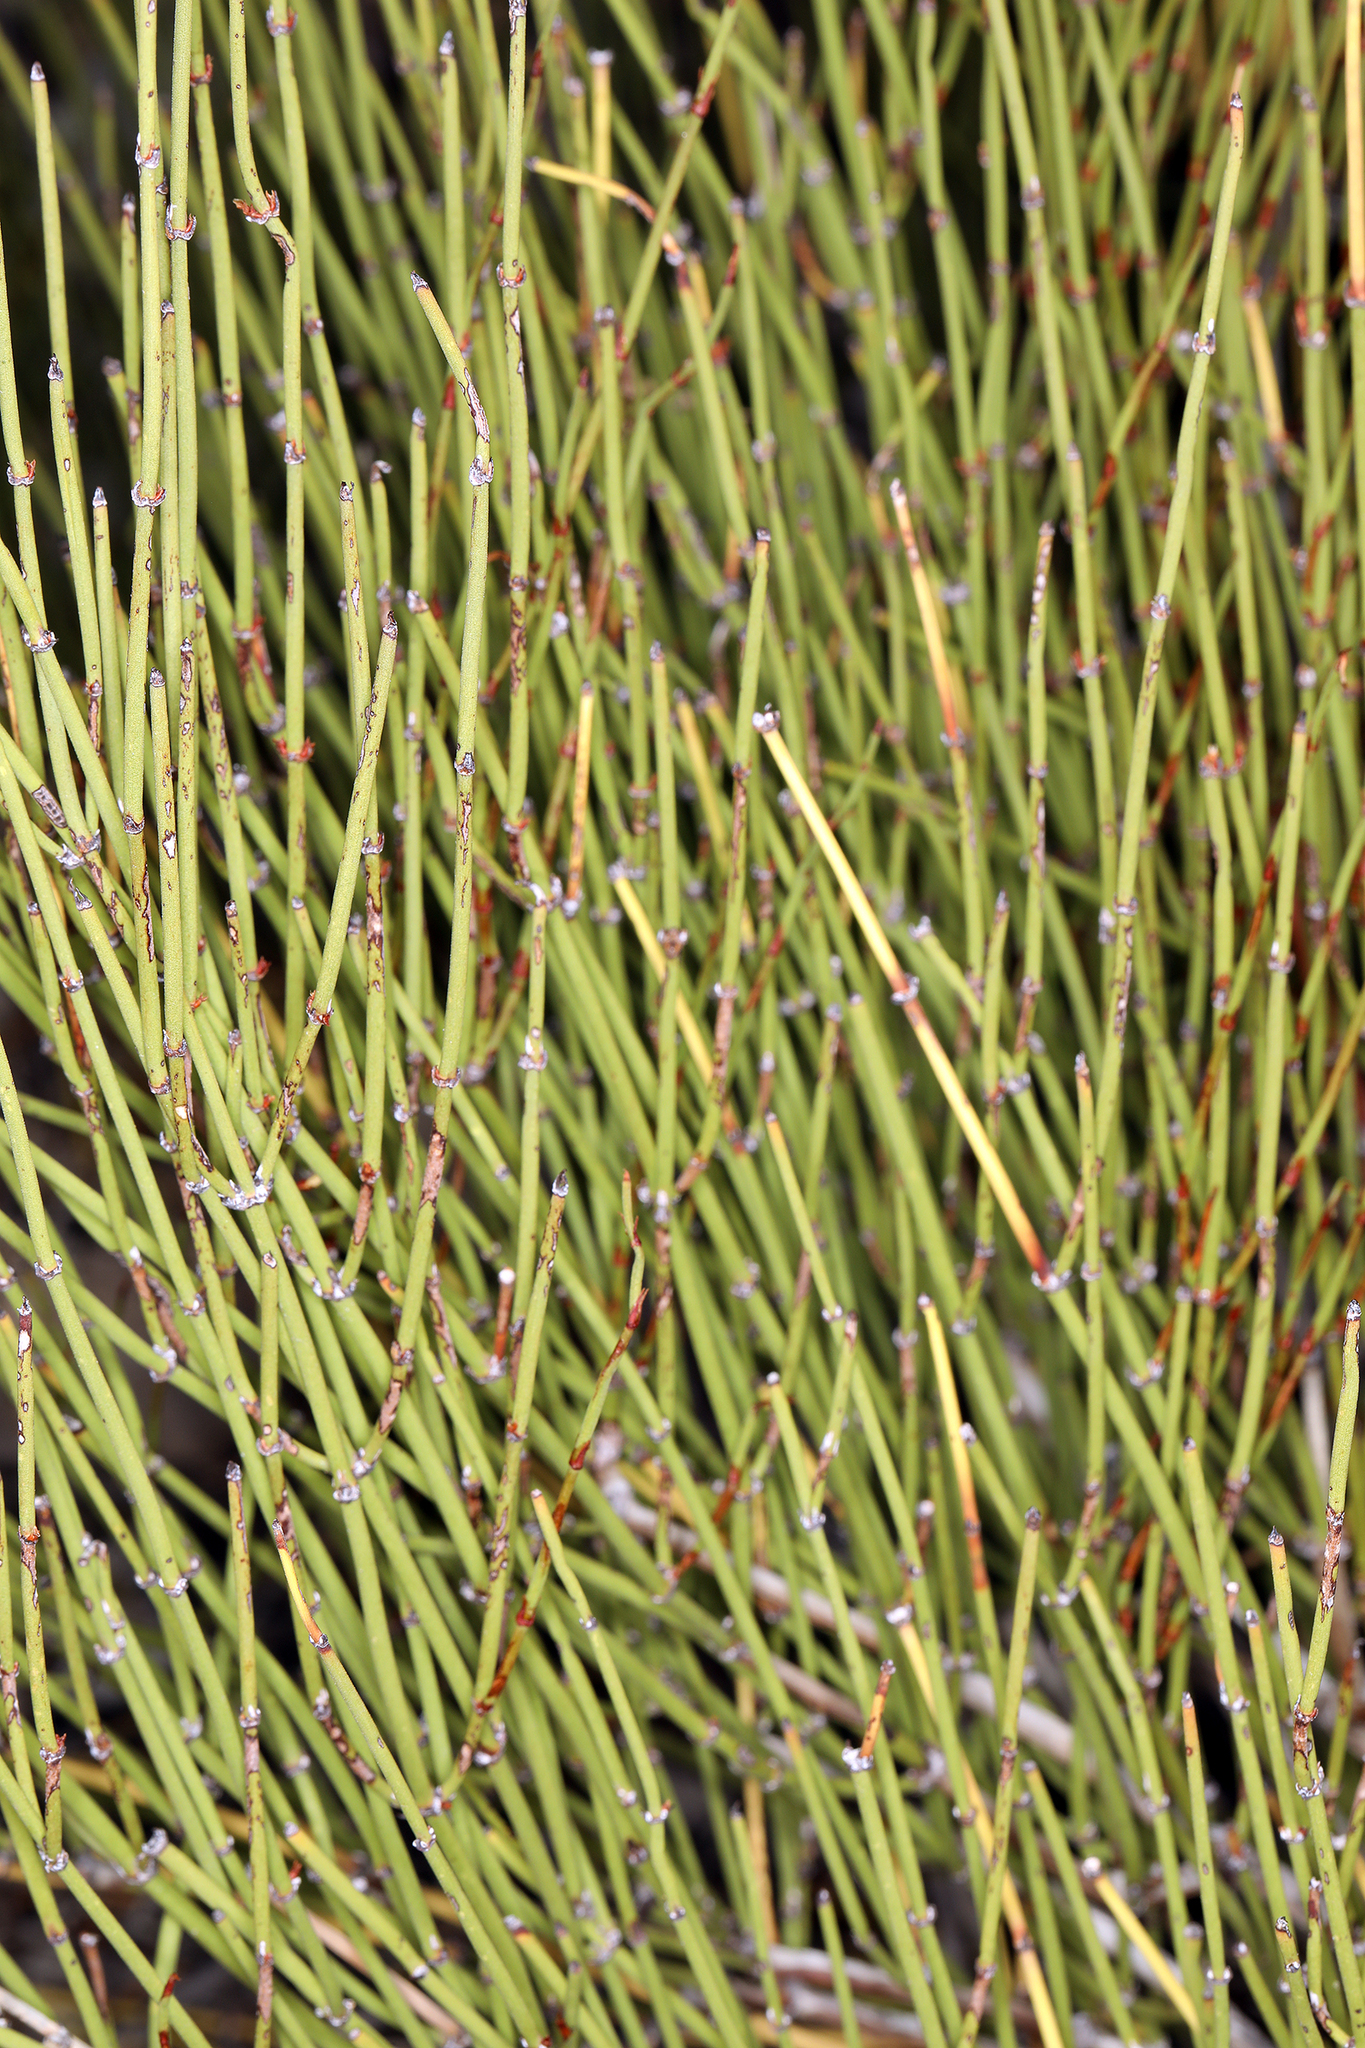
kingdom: Plantae
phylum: Tracheophyta
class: Gnetopsida
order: Ephedrales
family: Ephedraceae
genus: Ephedra
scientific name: Ephedra viridis
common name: Green ephedra
